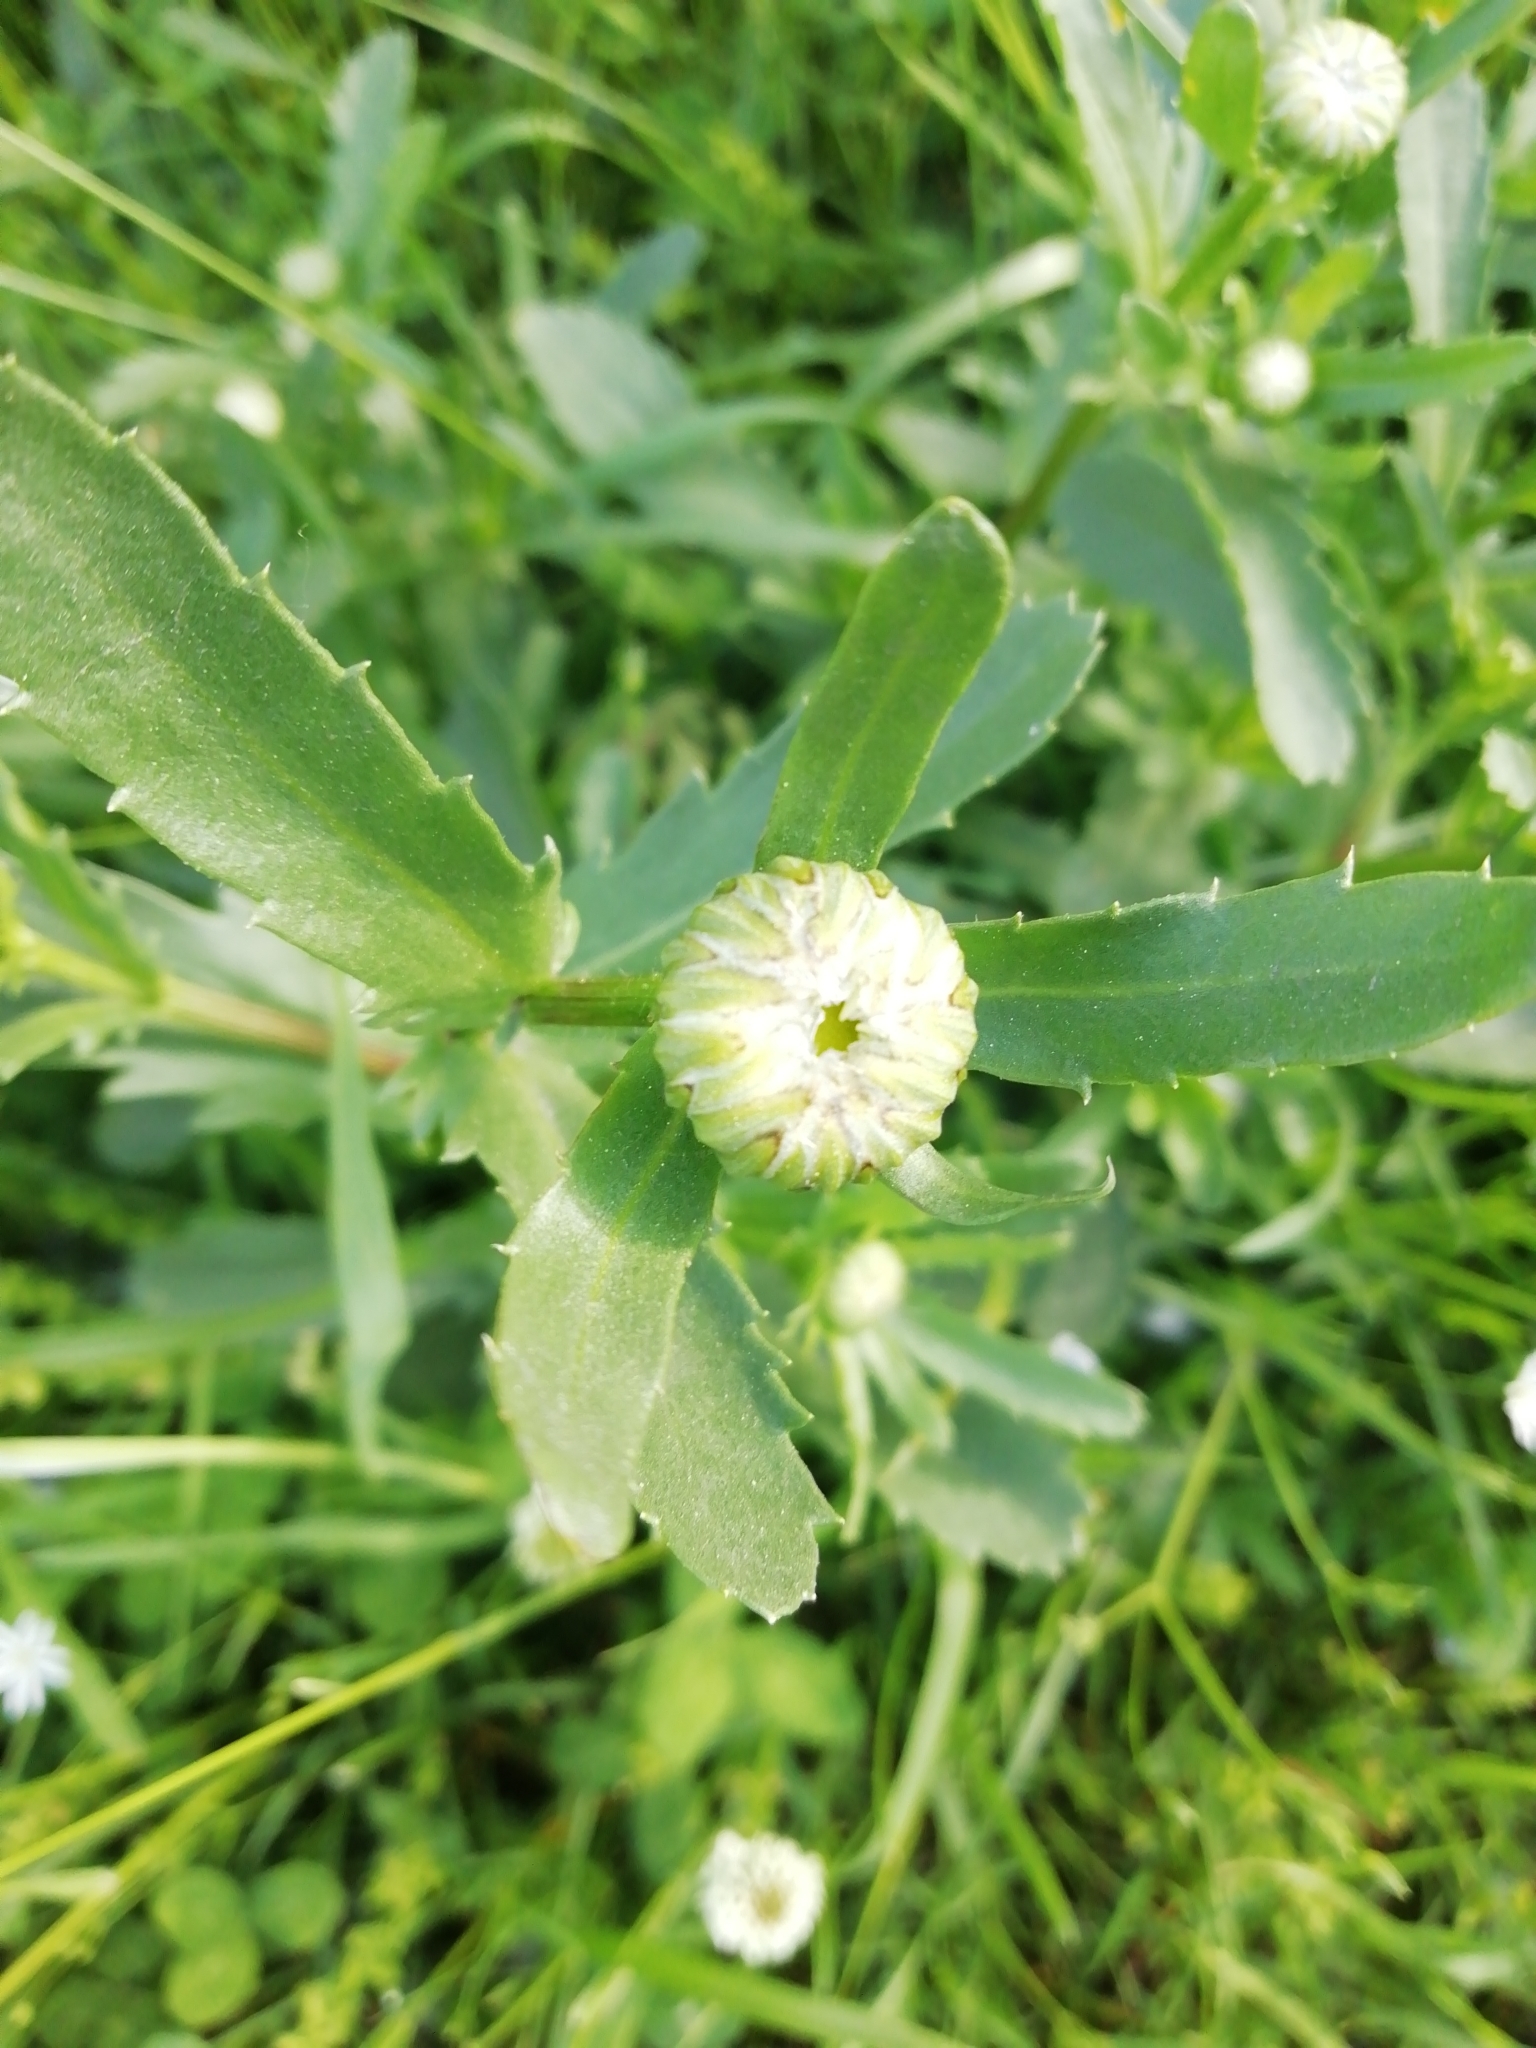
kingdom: Plantae
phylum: Tracheophyta
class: Magnoliopsida
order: Asterales
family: Asteraceae
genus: Leucanthemum
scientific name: Leucanthemum vulgare
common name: Oxeye daisy
